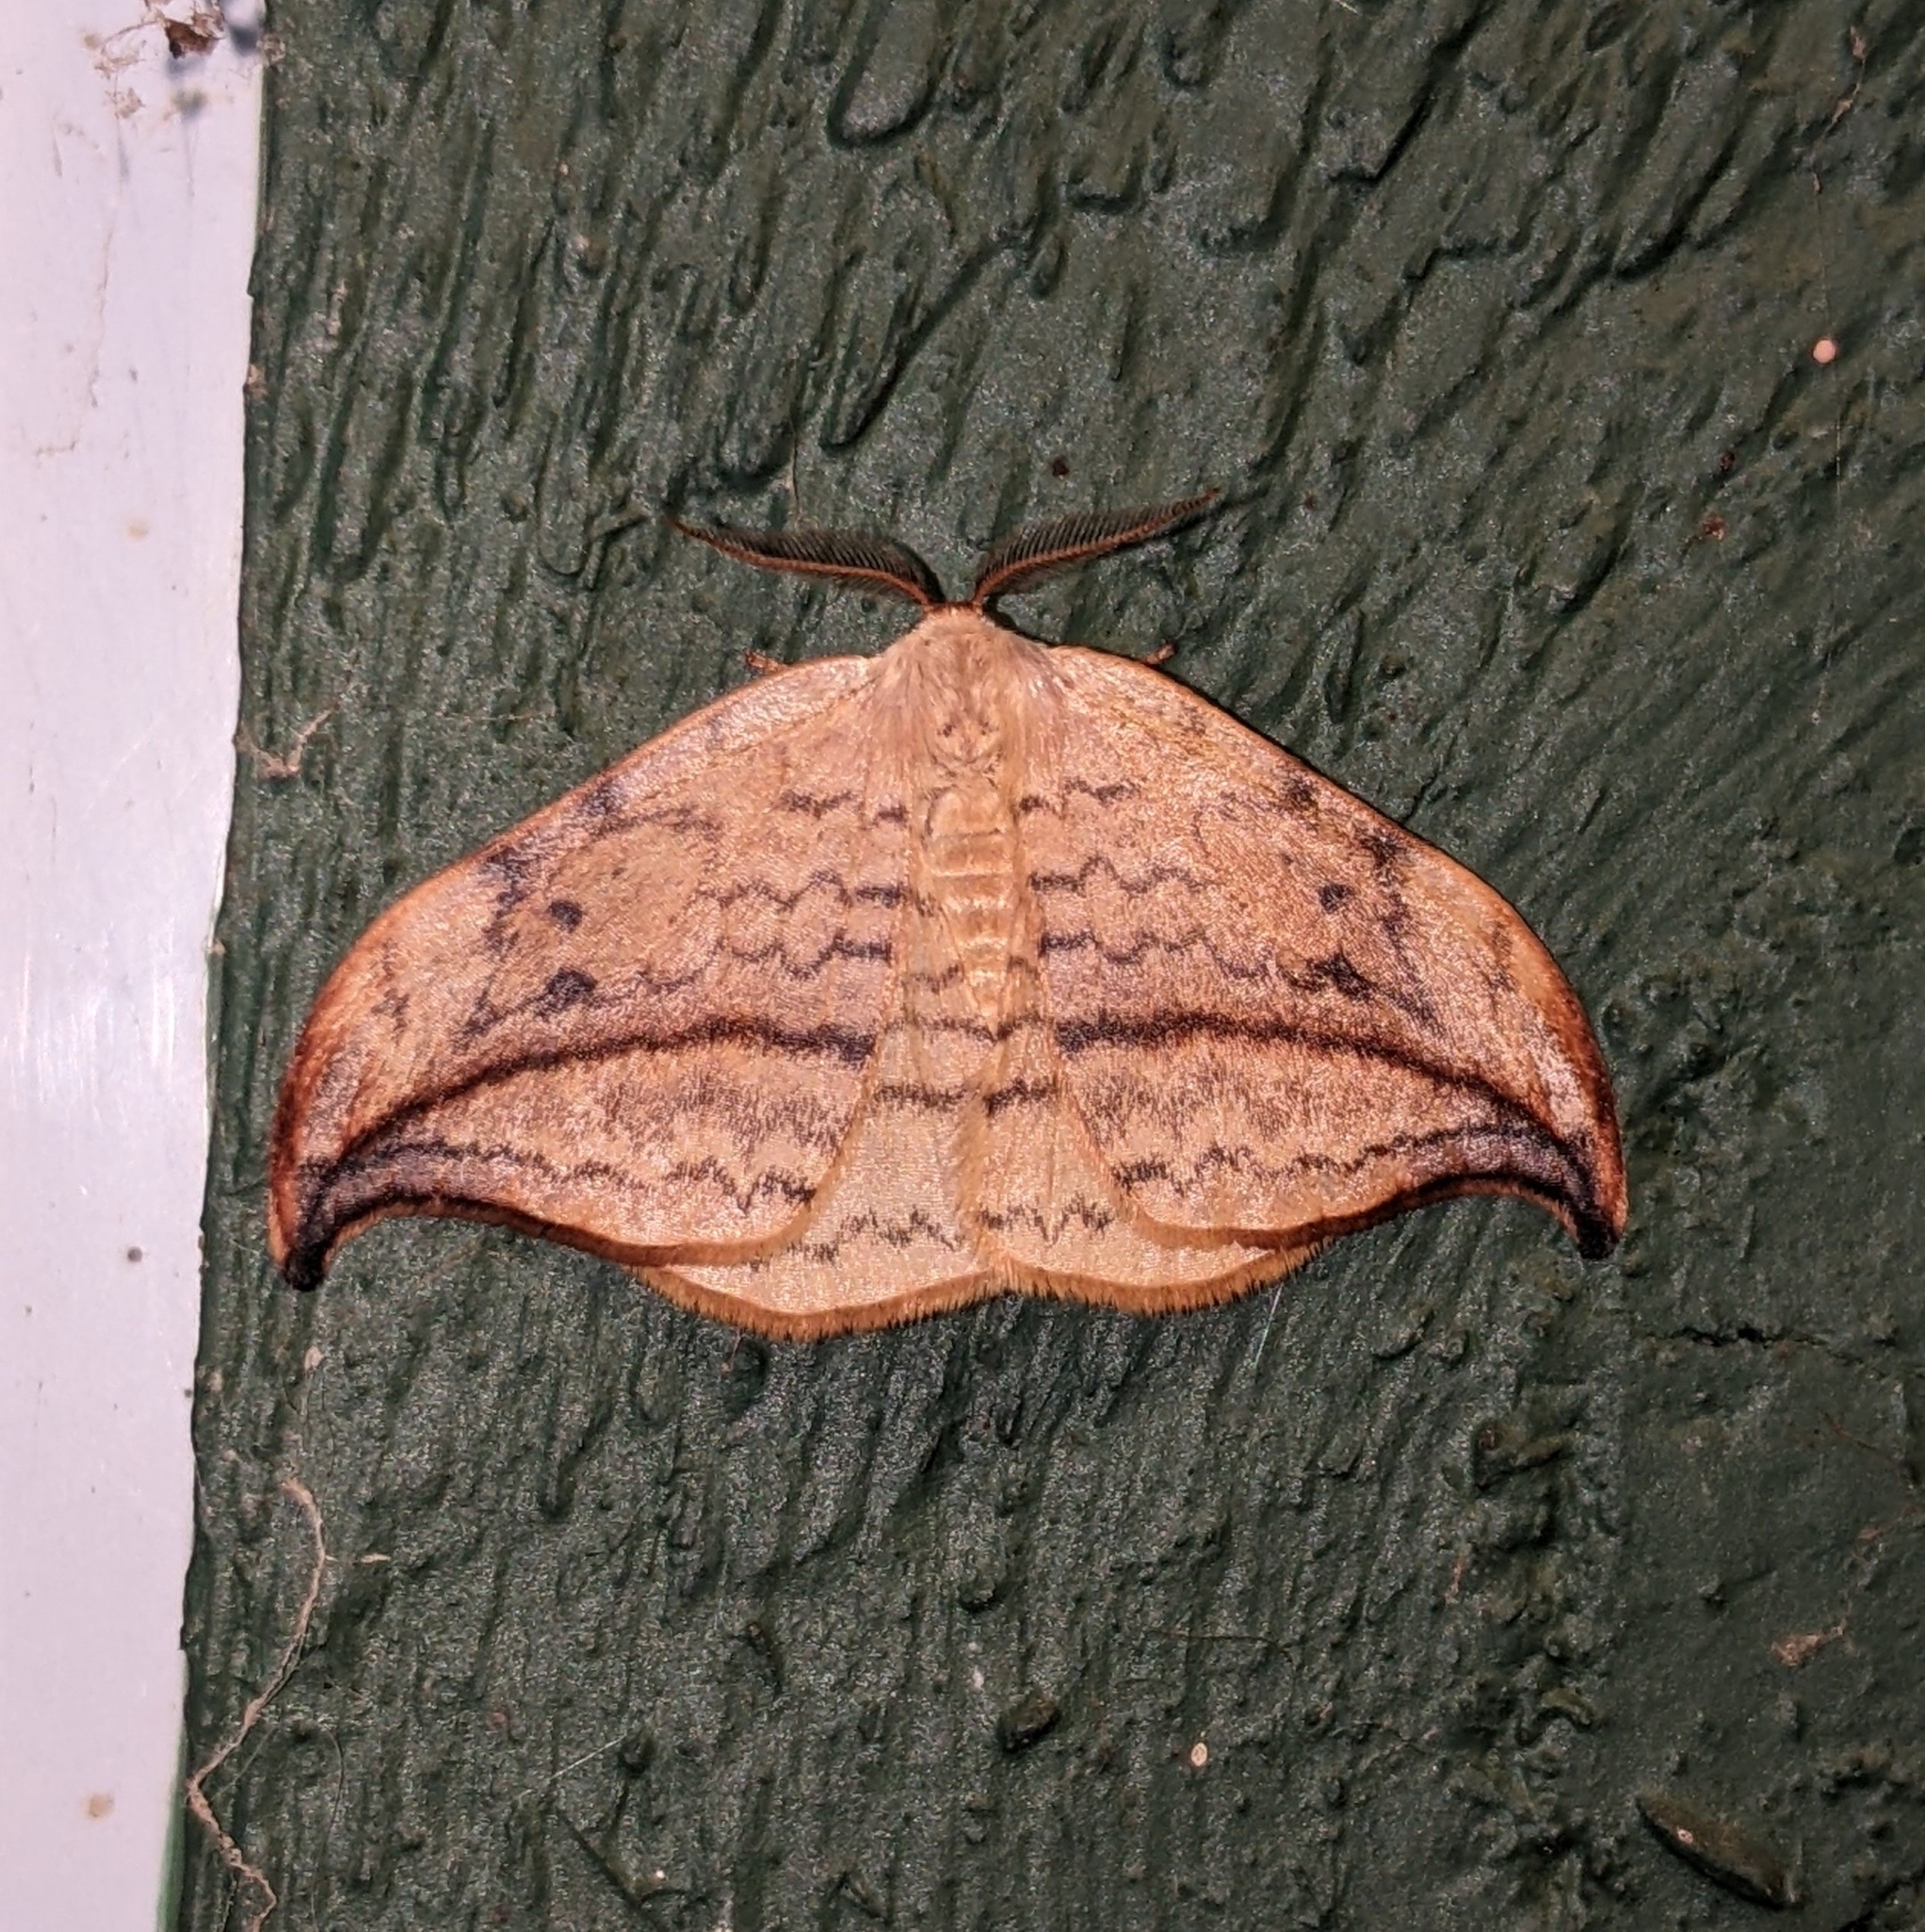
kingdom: Animalia
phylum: Arthropoda
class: Insecta
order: Lepidoptera
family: Drepanidae
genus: Drepana
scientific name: Drepana arcuata
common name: Arched hooktip moth
